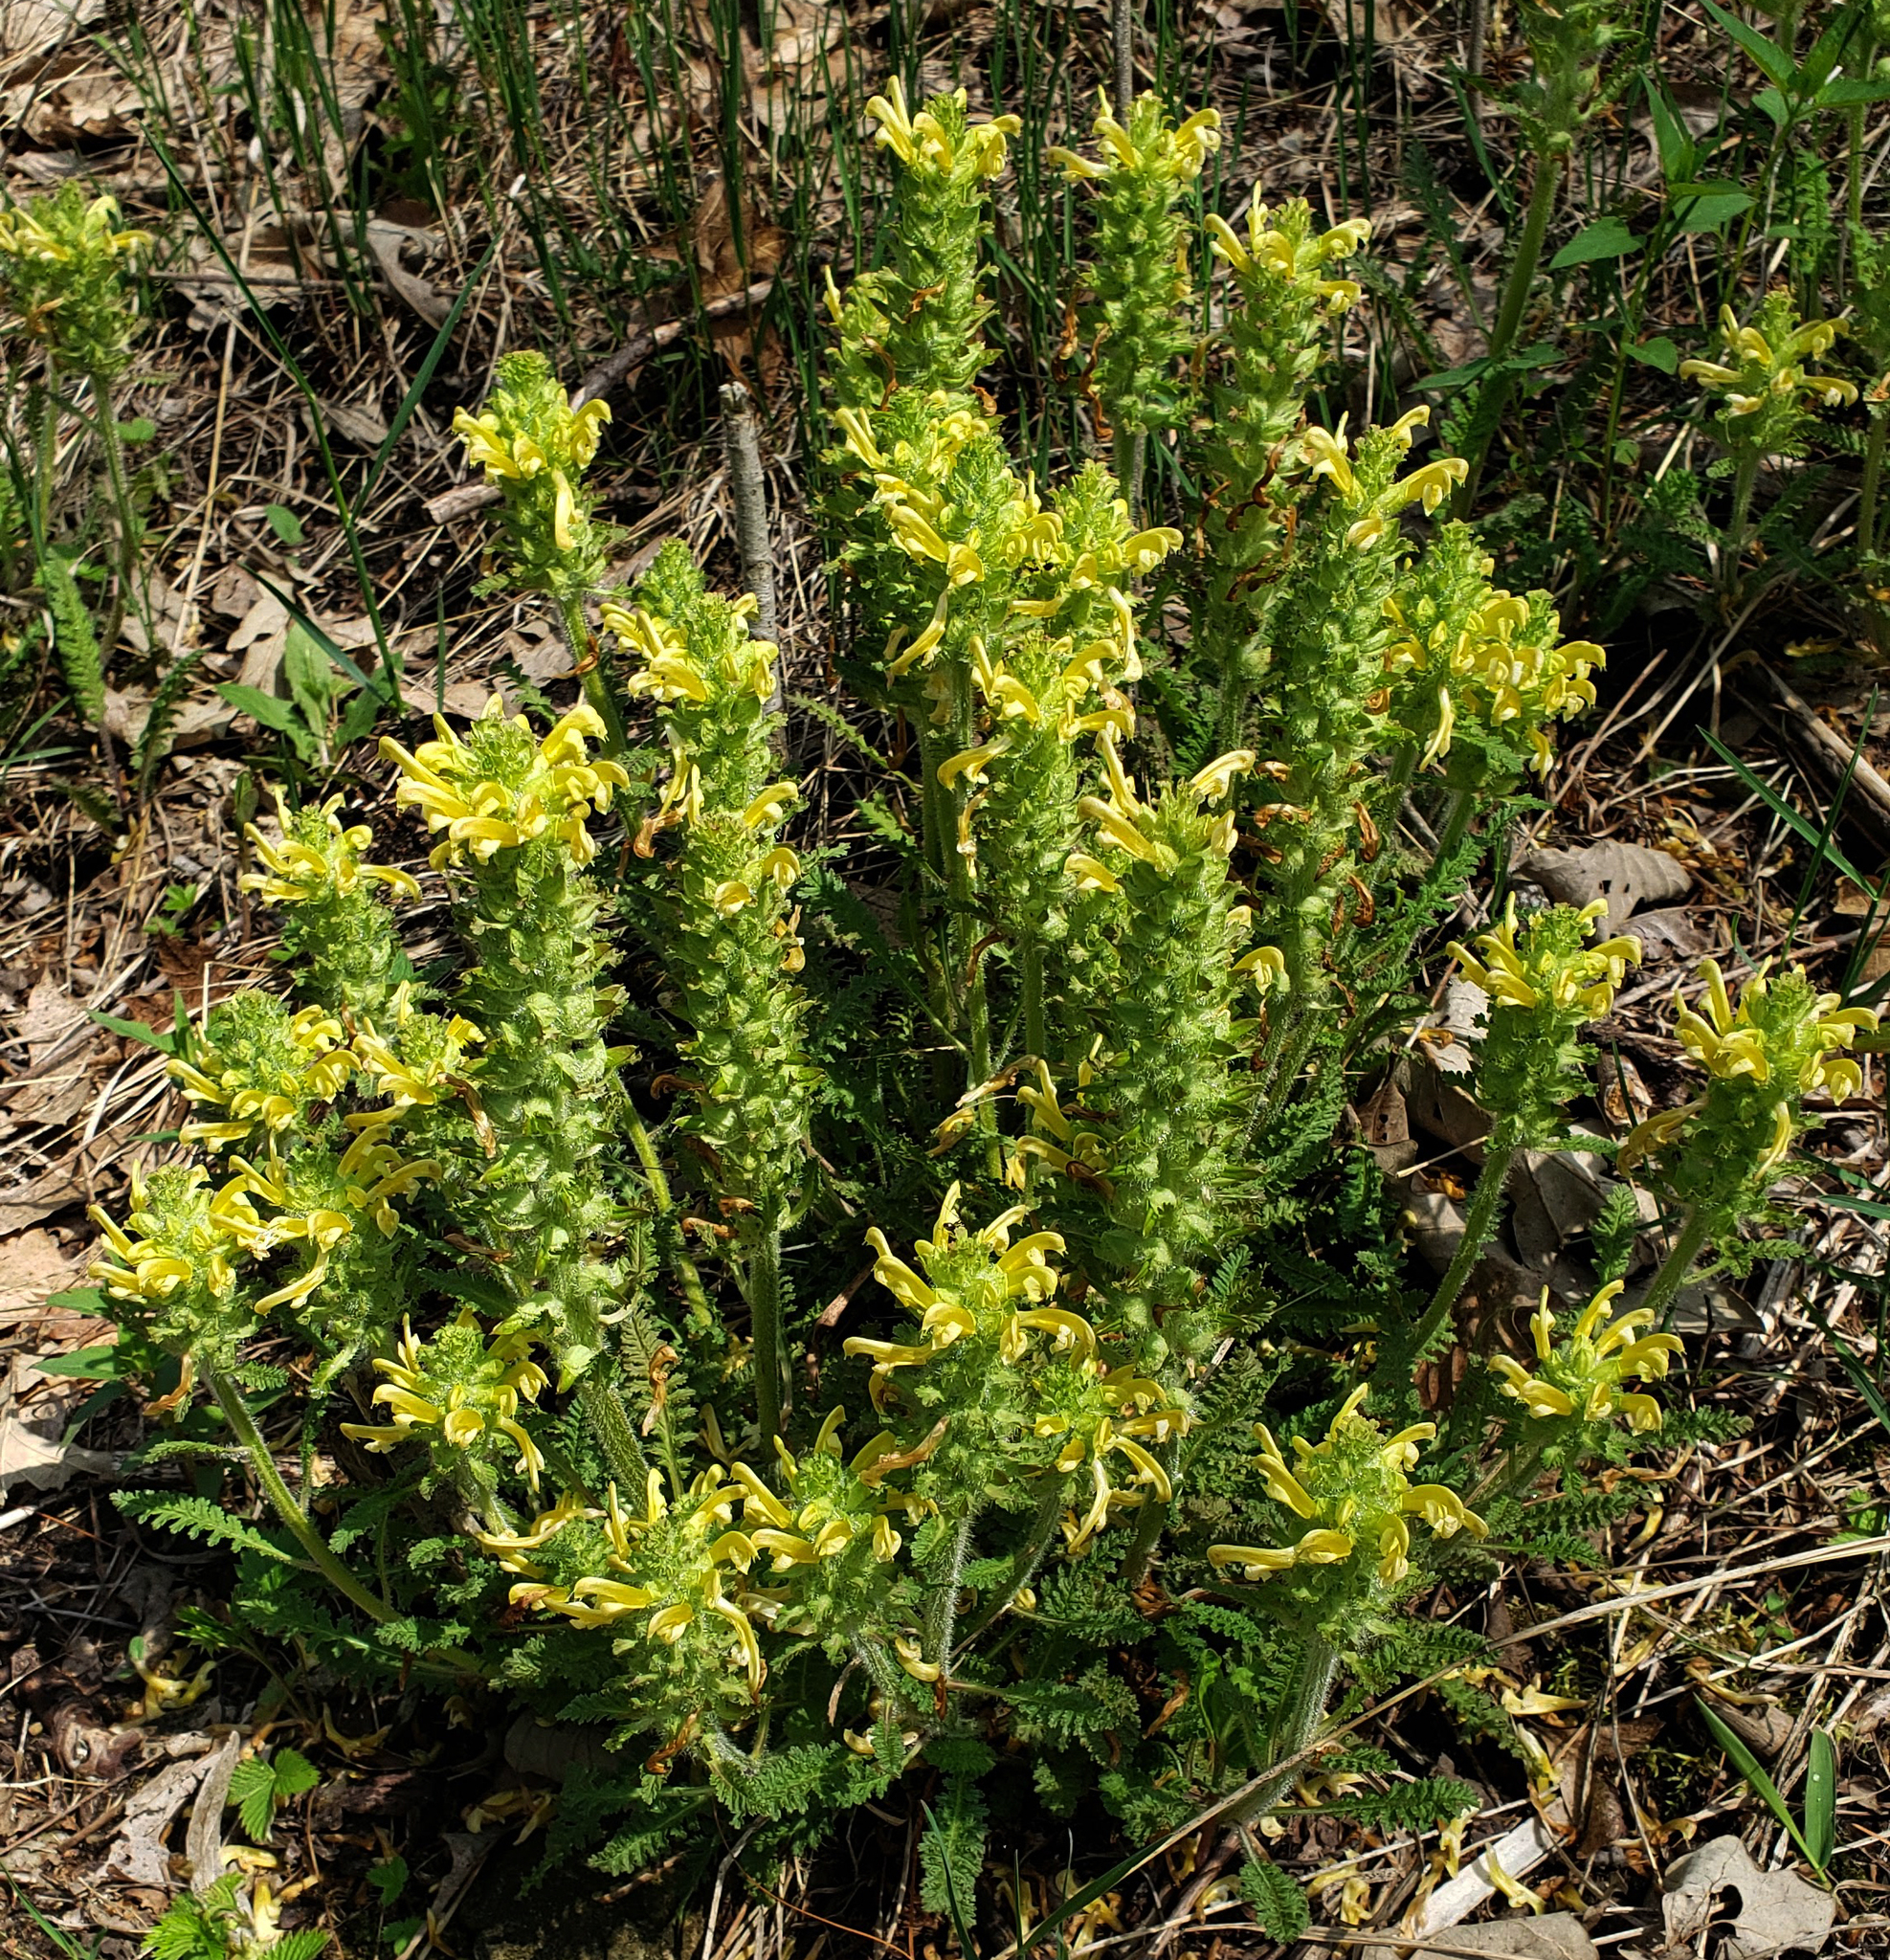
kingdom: Plantae
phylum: Tracheophyta
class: Magnoliopsida
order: Lamiales
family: Orobanchaceae
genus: Pedicularis
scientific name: Pedicularis canadensis
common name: Early lousewort
